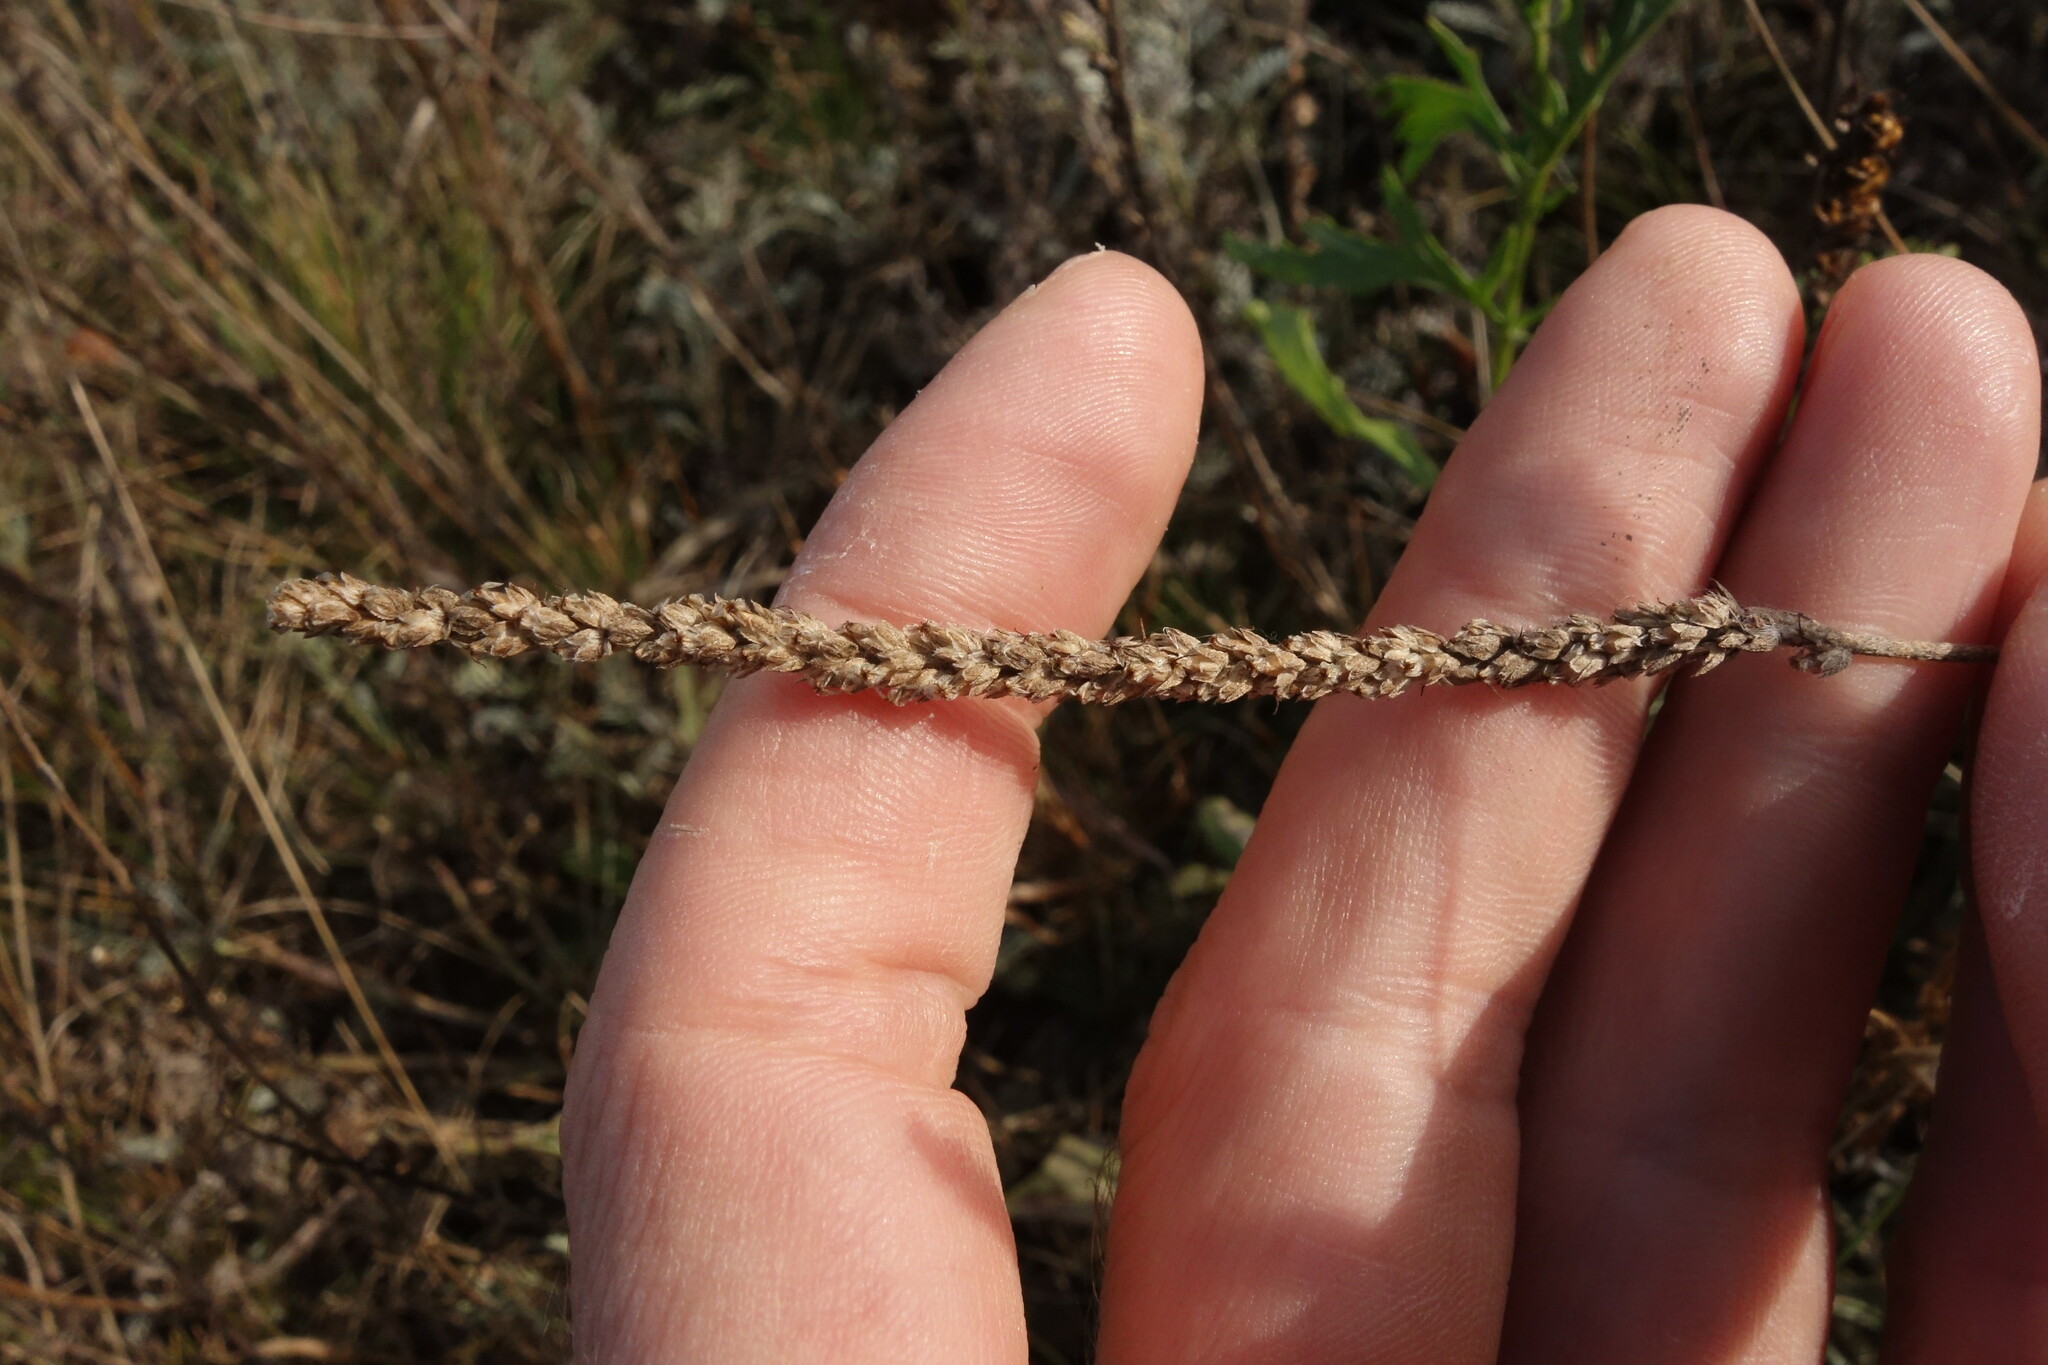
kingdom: Plantae
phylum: Tracheophyta
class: Magnoliopsida
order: Lamiales
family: Plantaginaceae
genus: Plantago
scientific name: Plantago salsa
